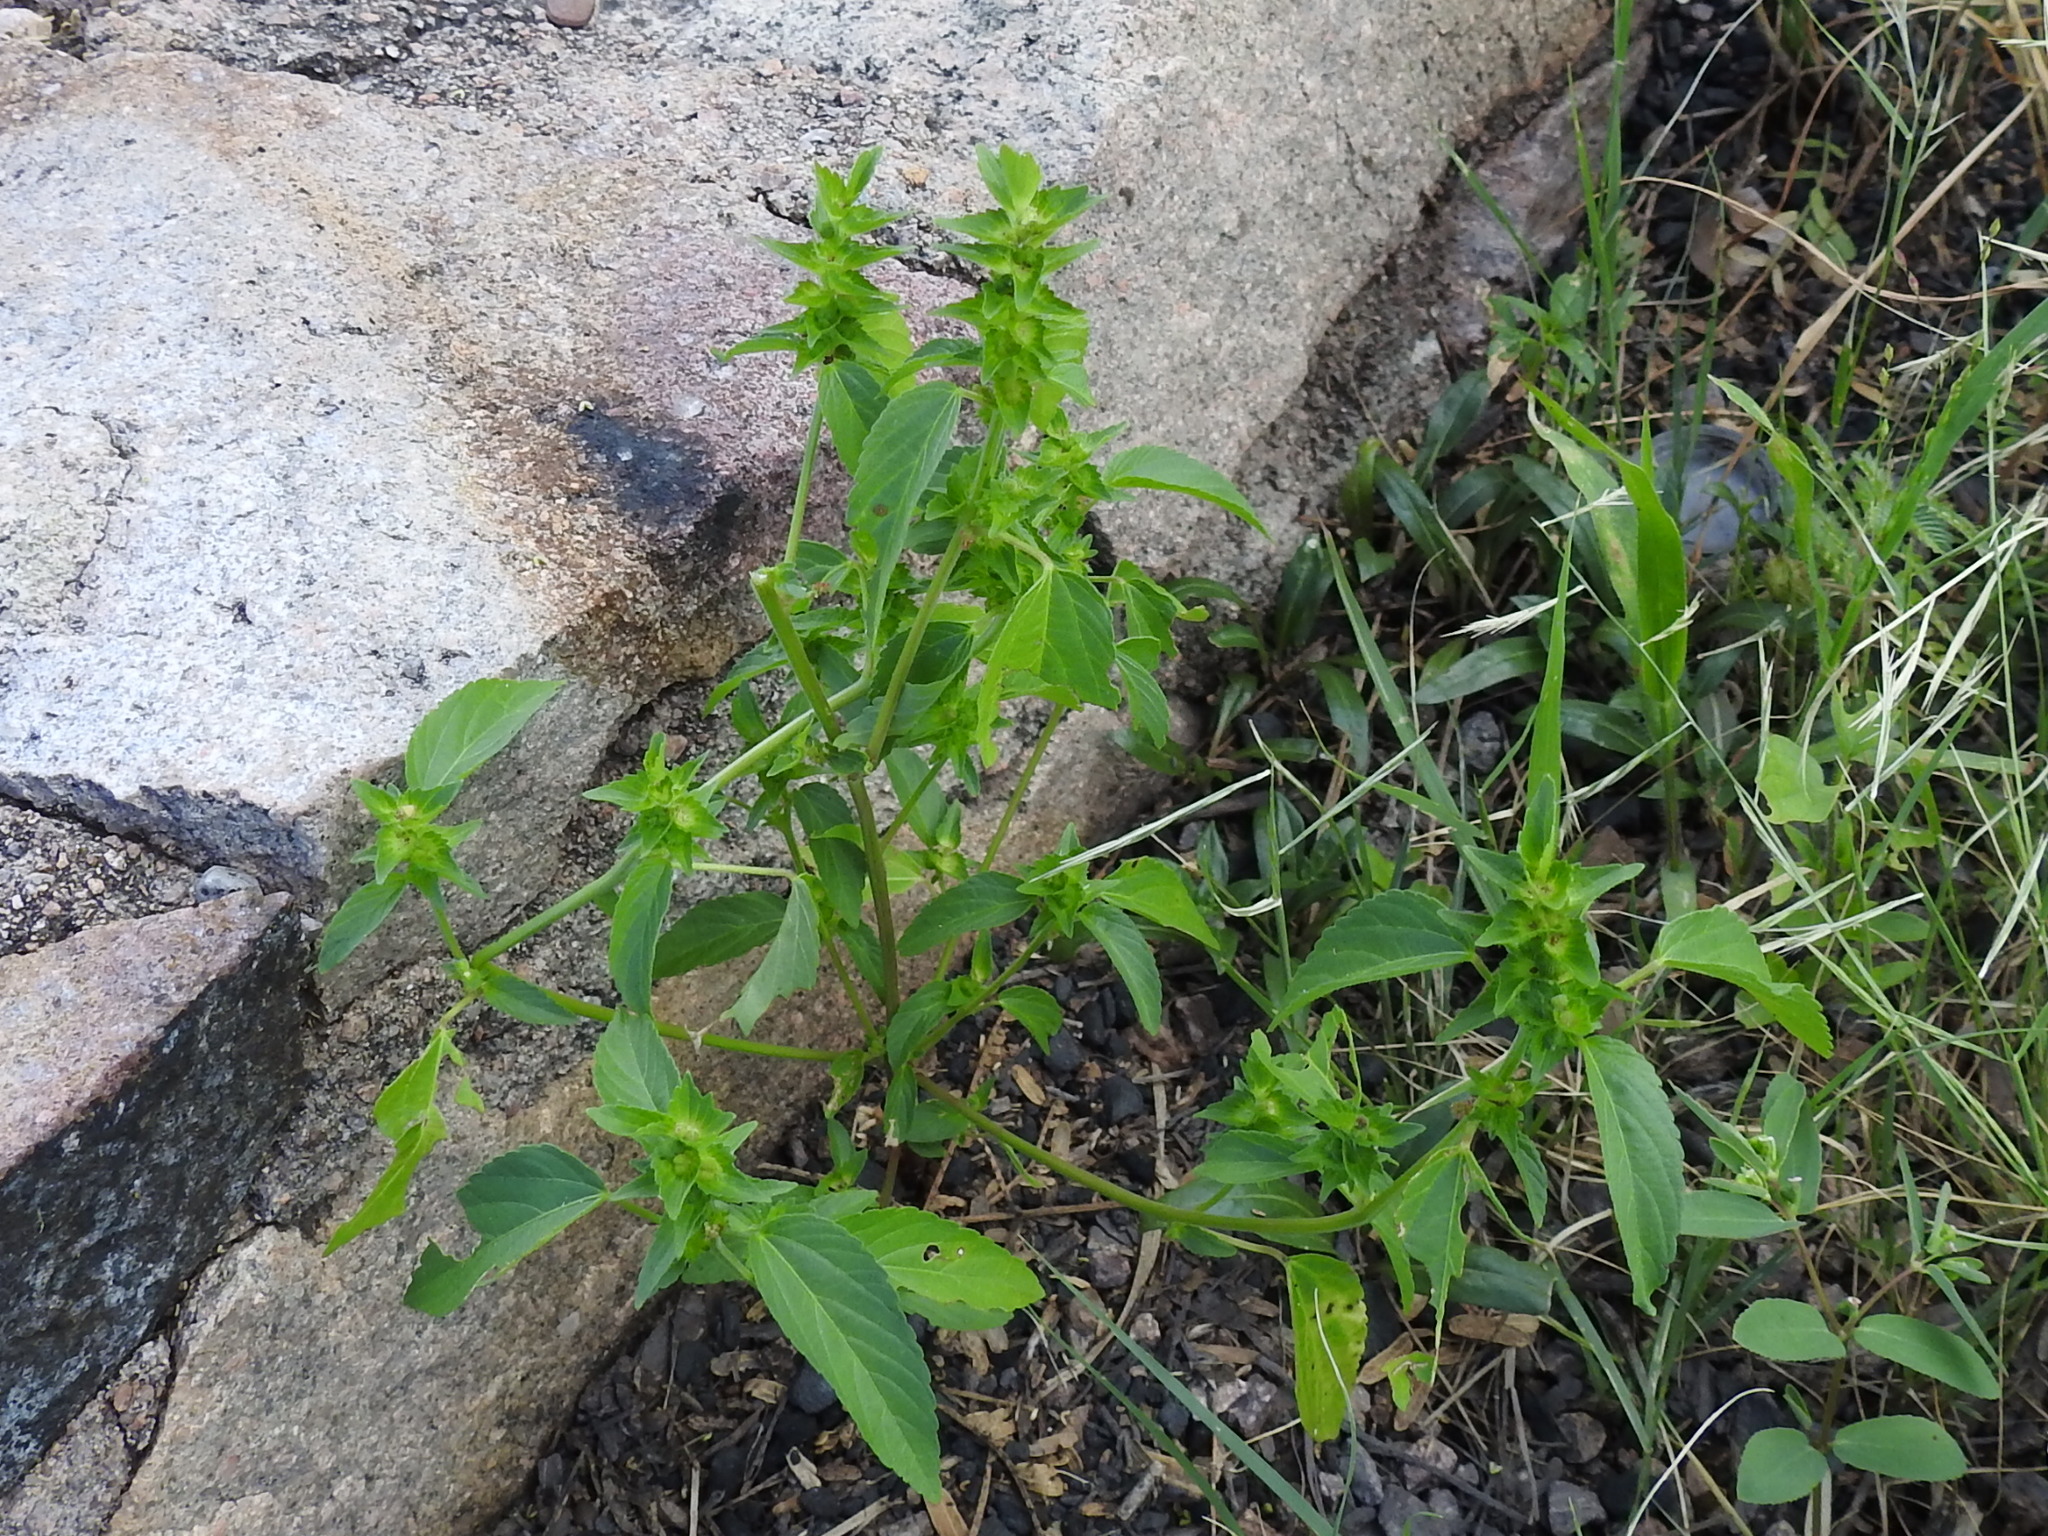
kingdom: Plantae
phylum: Tracheophyta
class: Magnoliopsida
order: Malpighiales
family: Euphorbiaceae
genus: Acalypha
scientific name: Acalypha neomexicana
